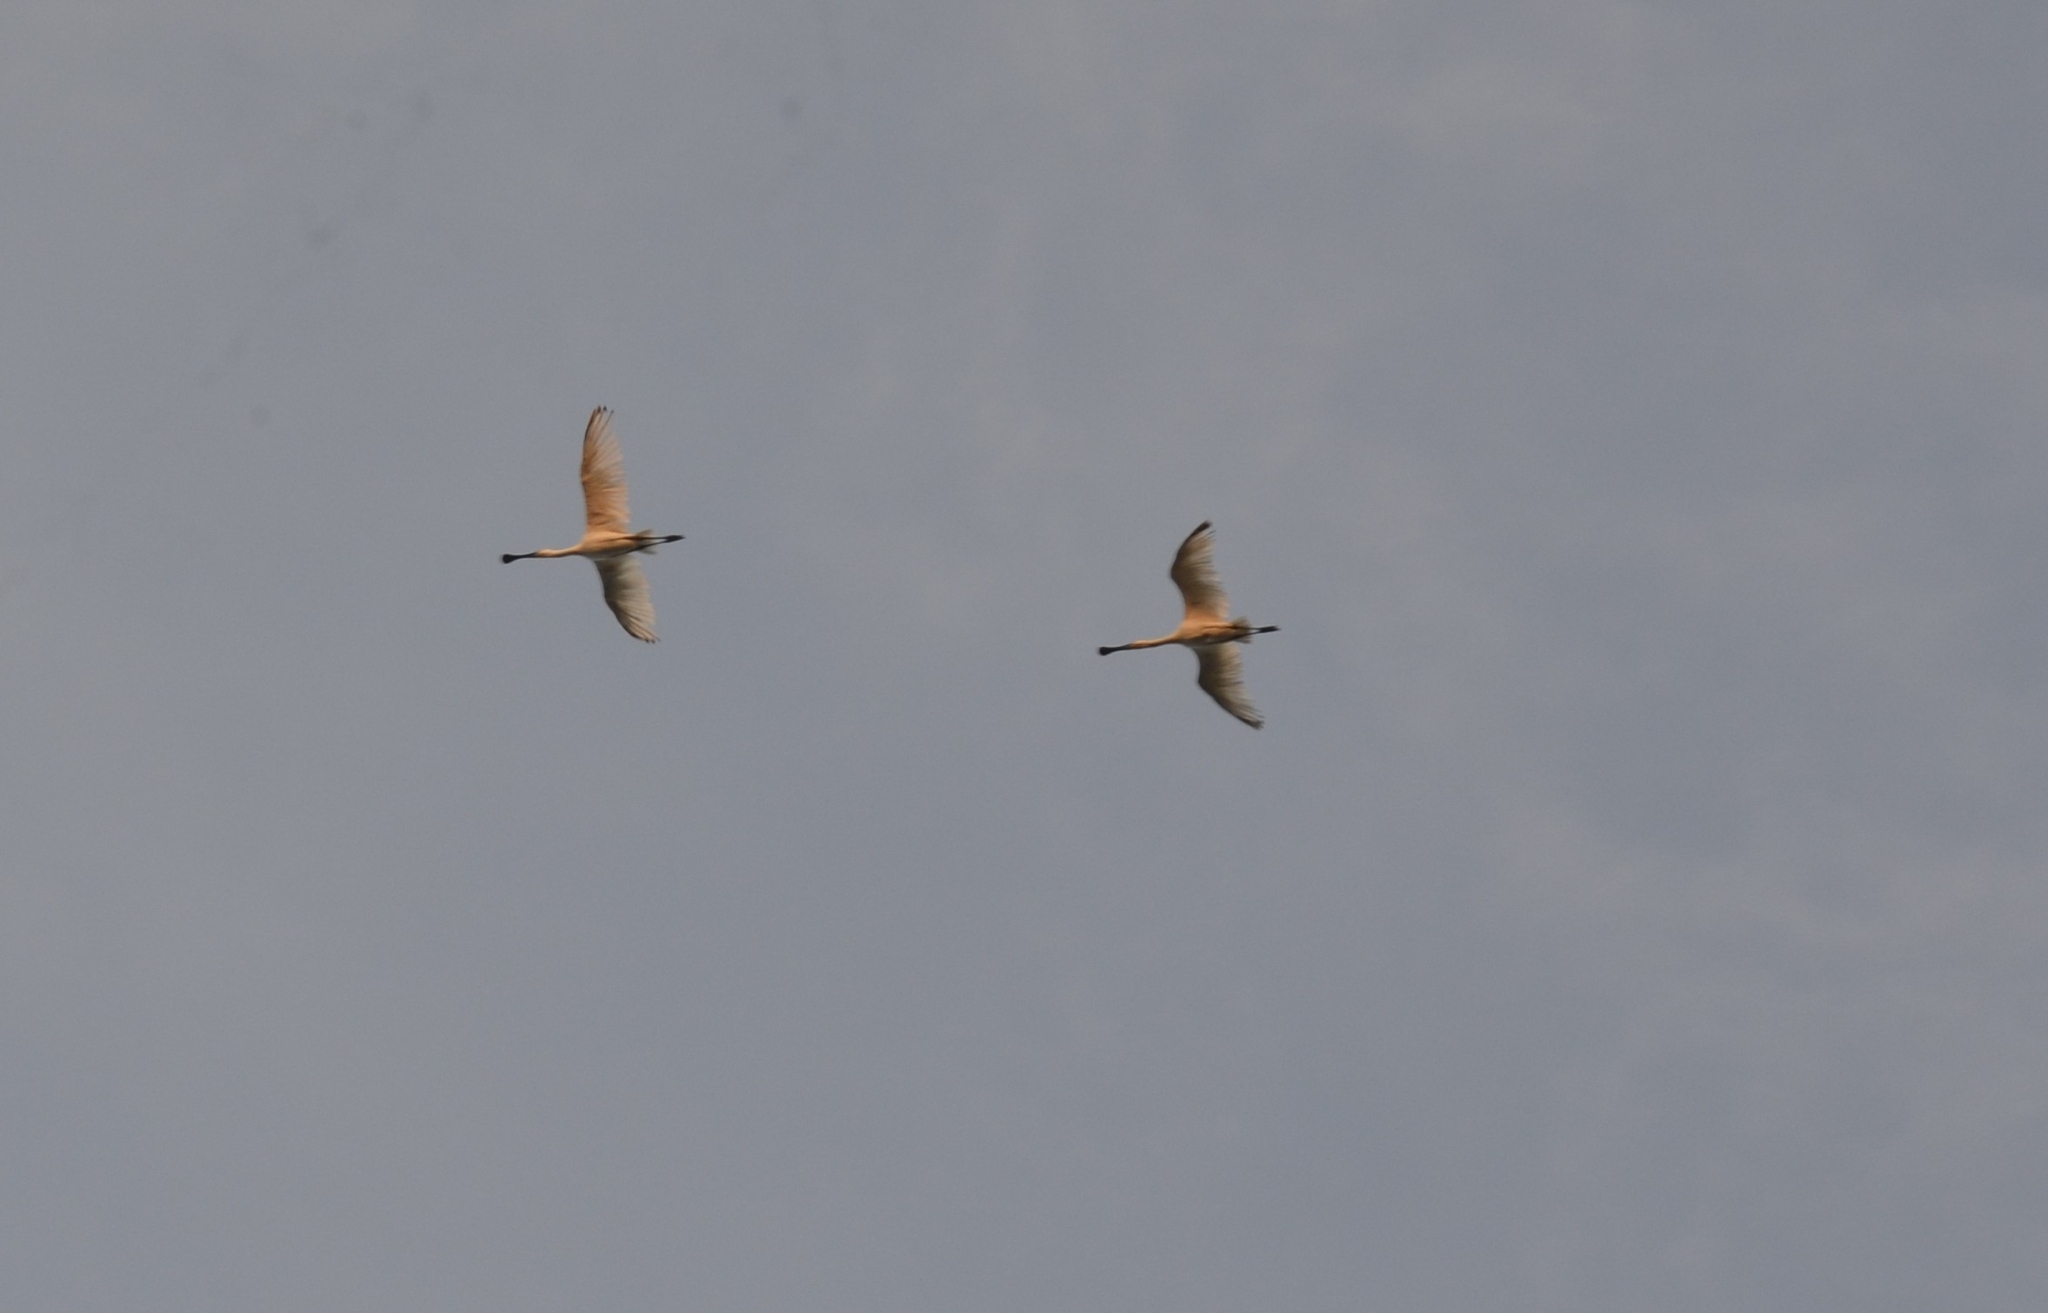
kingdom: Animalia
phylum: Chordata
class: Aves
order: Pelecaniformes
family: Threskiornithidae
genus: Platalea
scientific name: Platalea leucorodia
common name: Eurasian spoonbill
